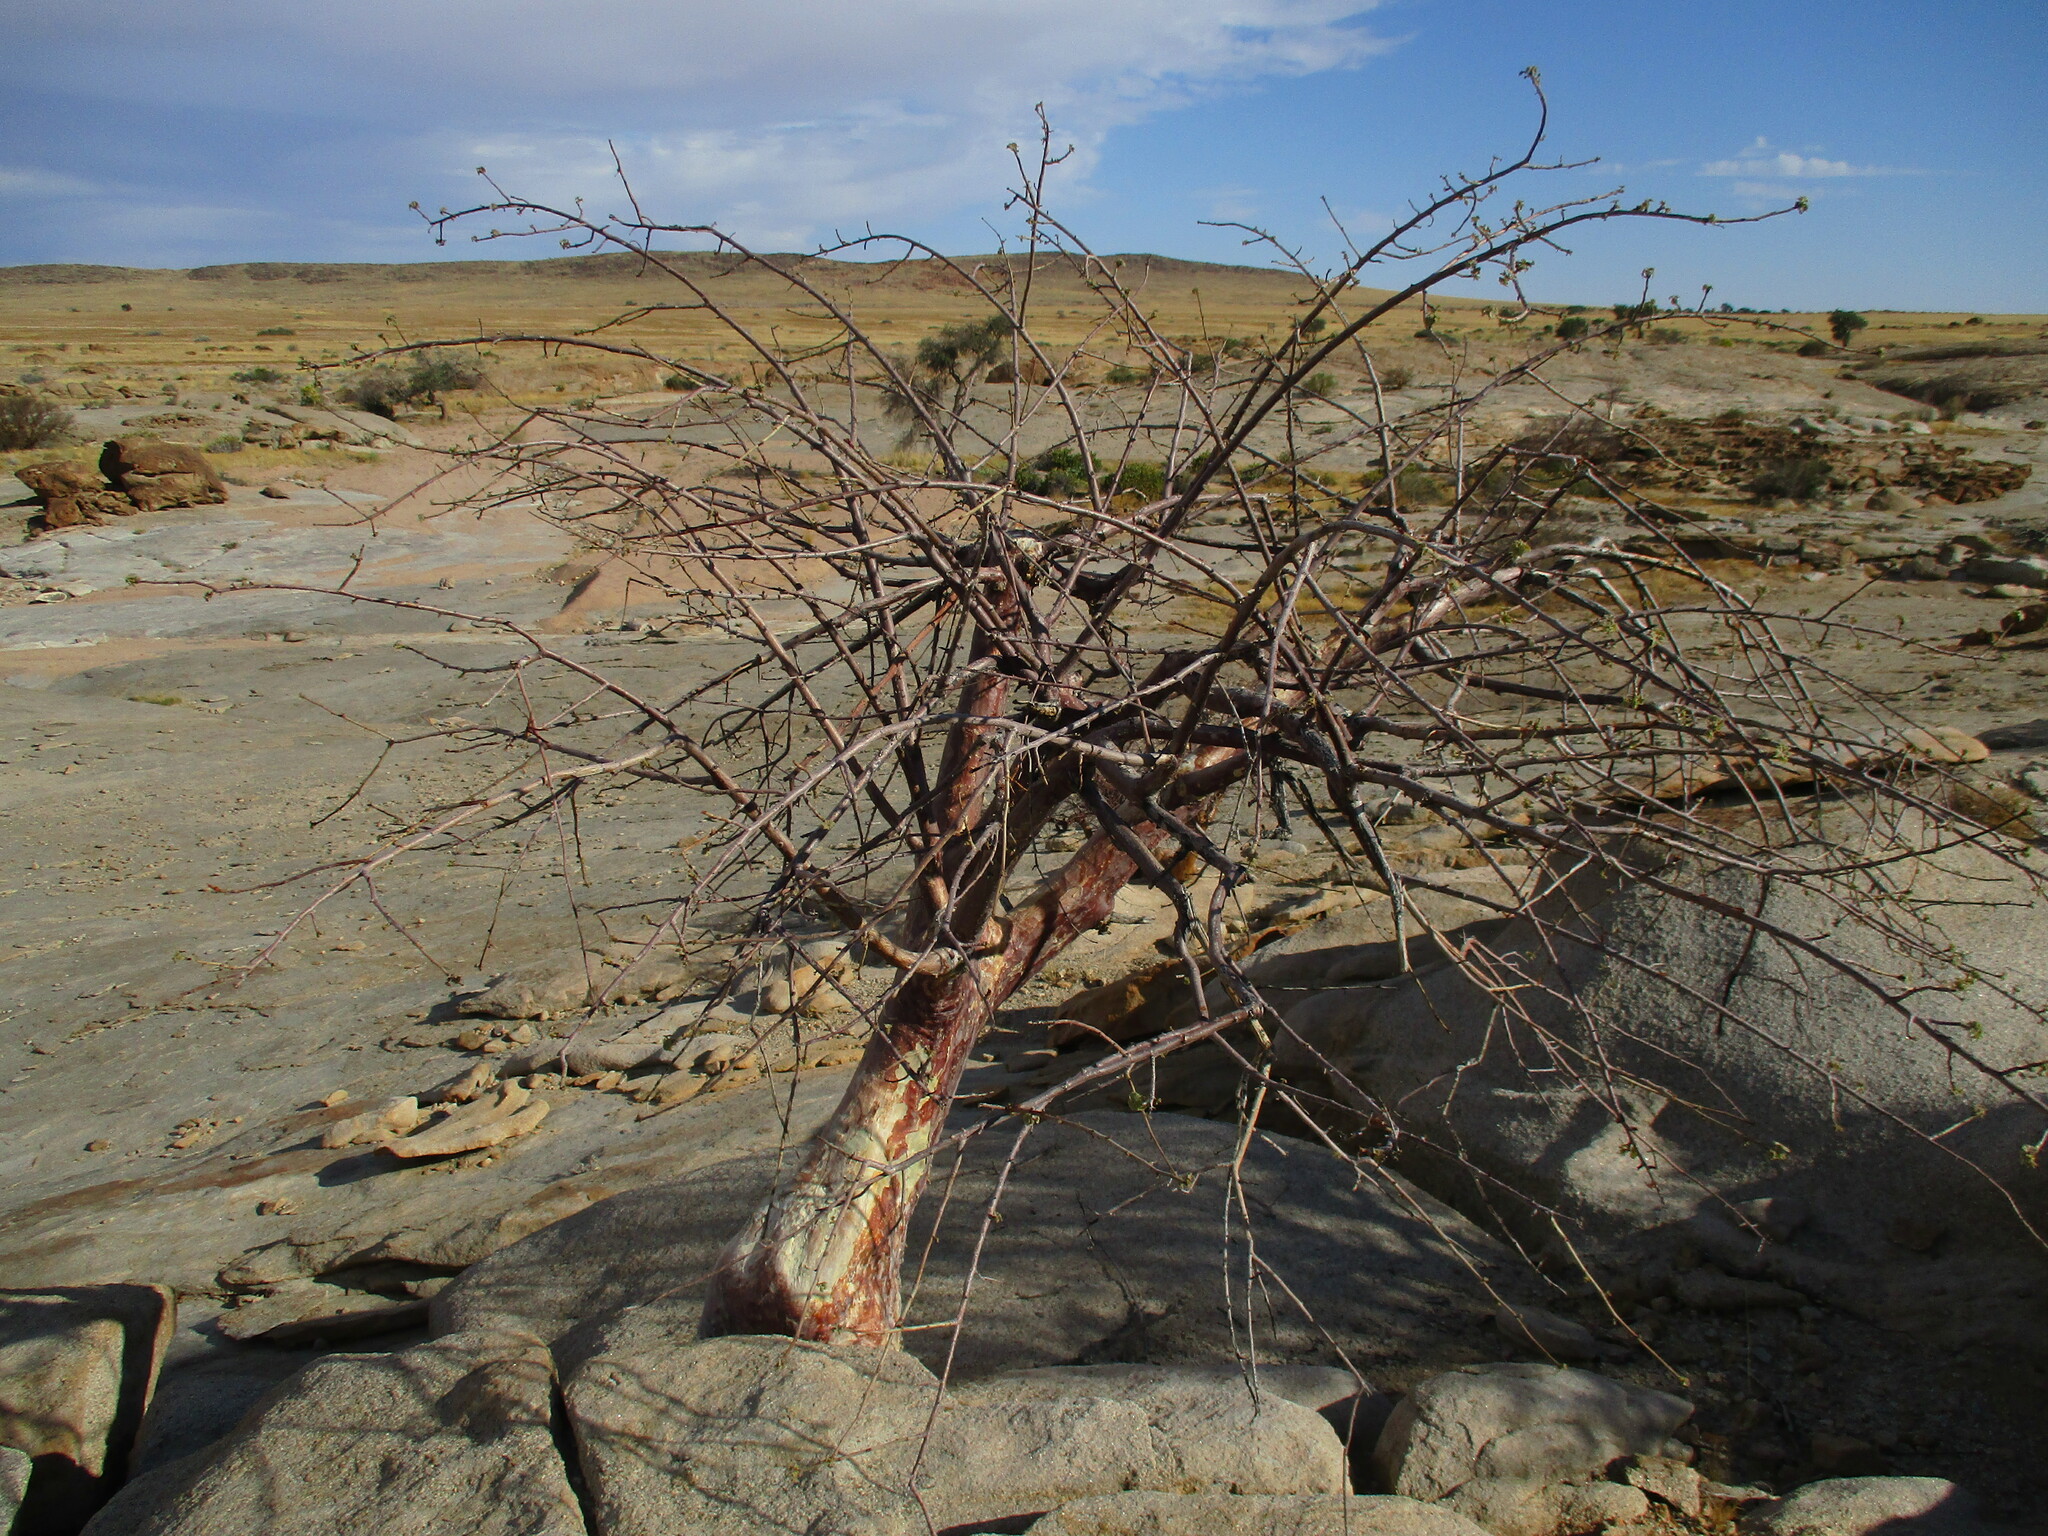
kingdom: Plantae
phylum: Tracheophyta
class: Magnoliopsida
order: Malvales
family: Malvaceae
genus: Sterculia
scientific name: Sterculia africana
